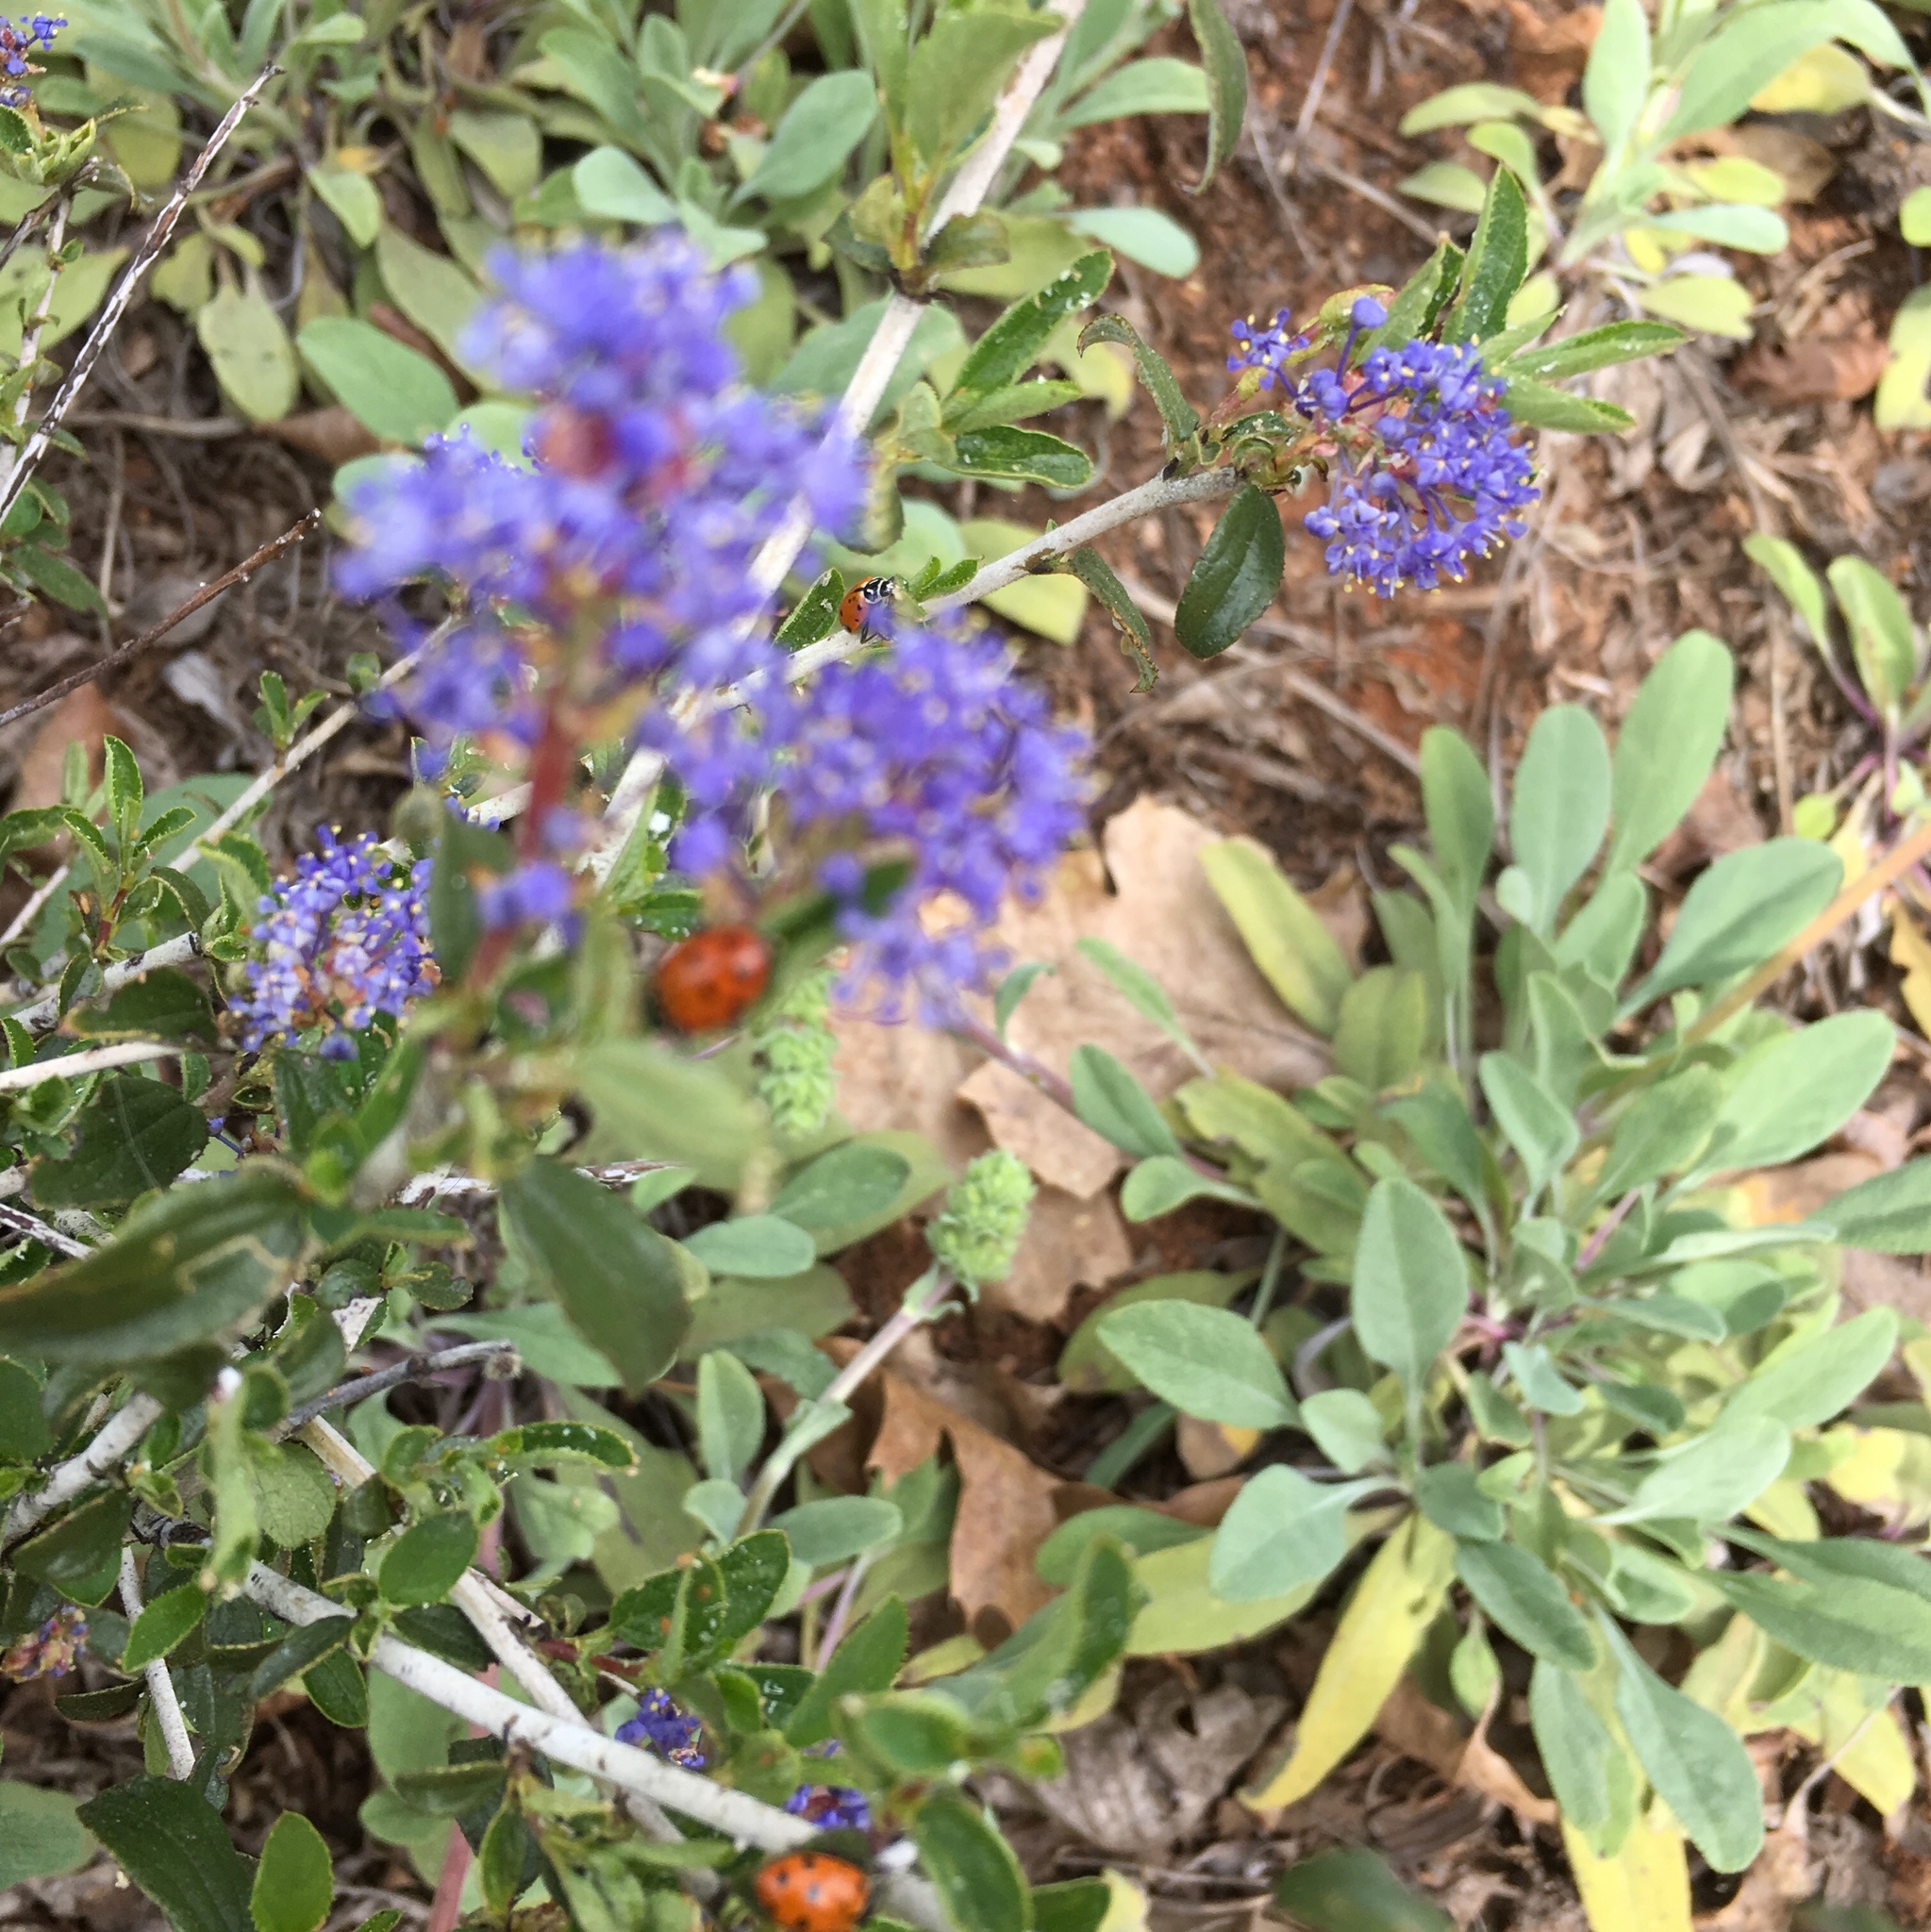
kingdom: Plantae
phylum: Tracheophyta
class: Magnoliopsida
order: Lamiales
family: Lamiaceae
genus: Salvia
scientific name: Salvia sonomensis
